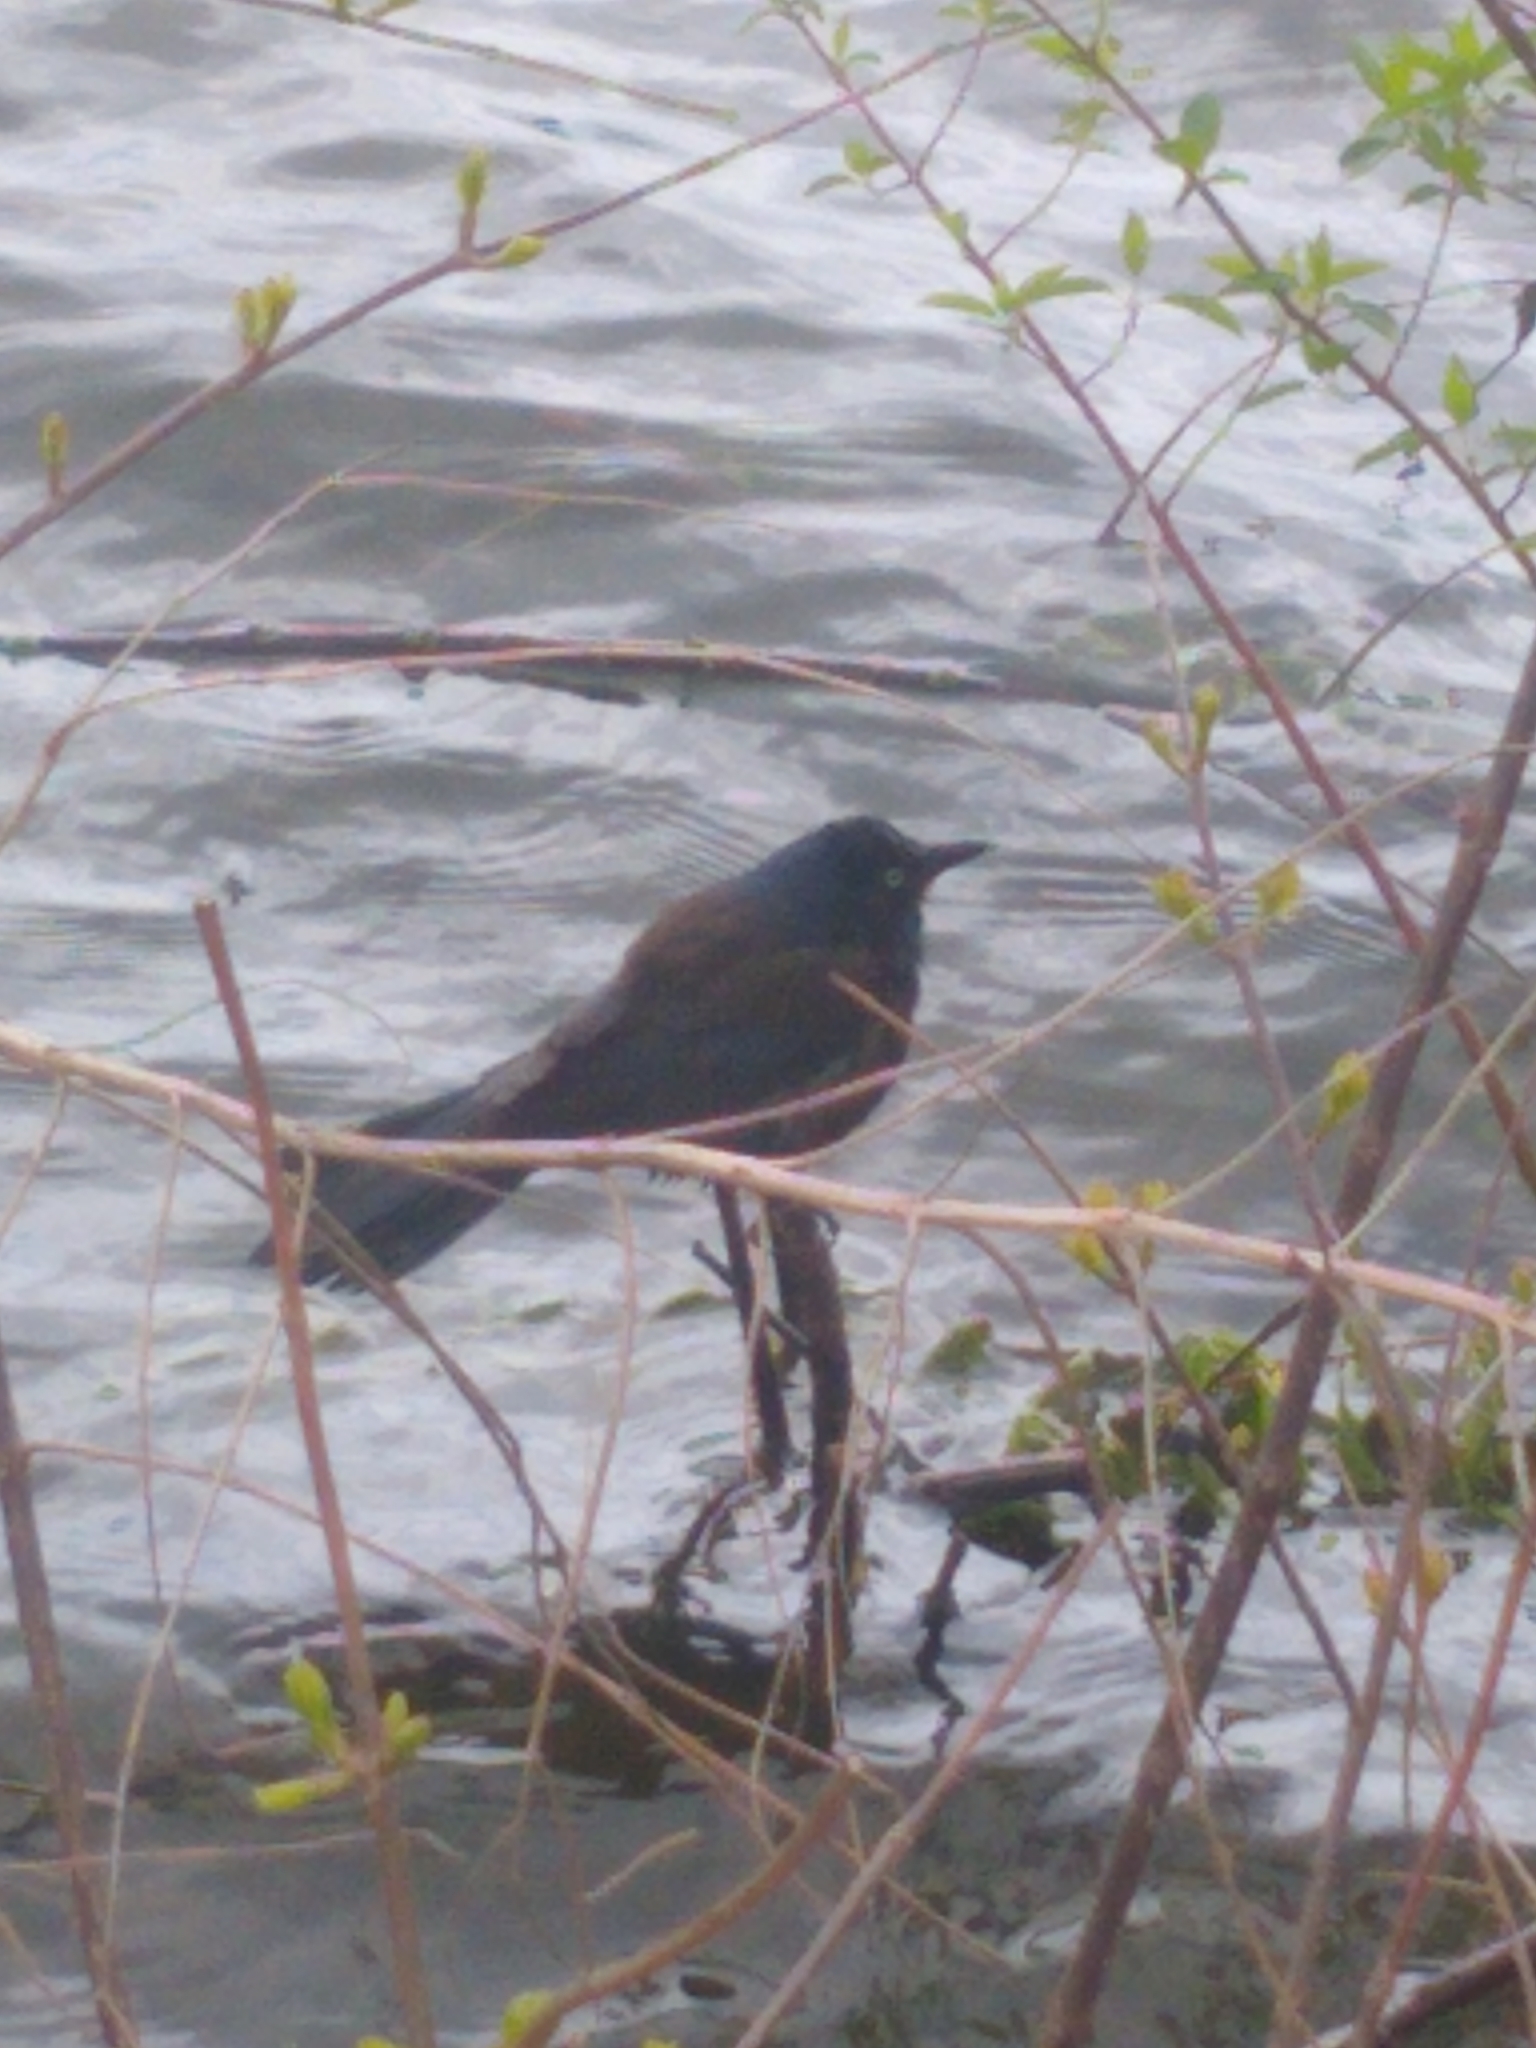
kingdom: Animalia
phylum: Chordata
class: Aves
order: Passeriformes
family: Icteridae
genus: Quiscalus
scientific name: Quiscalus quiscula
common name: Common grackle
